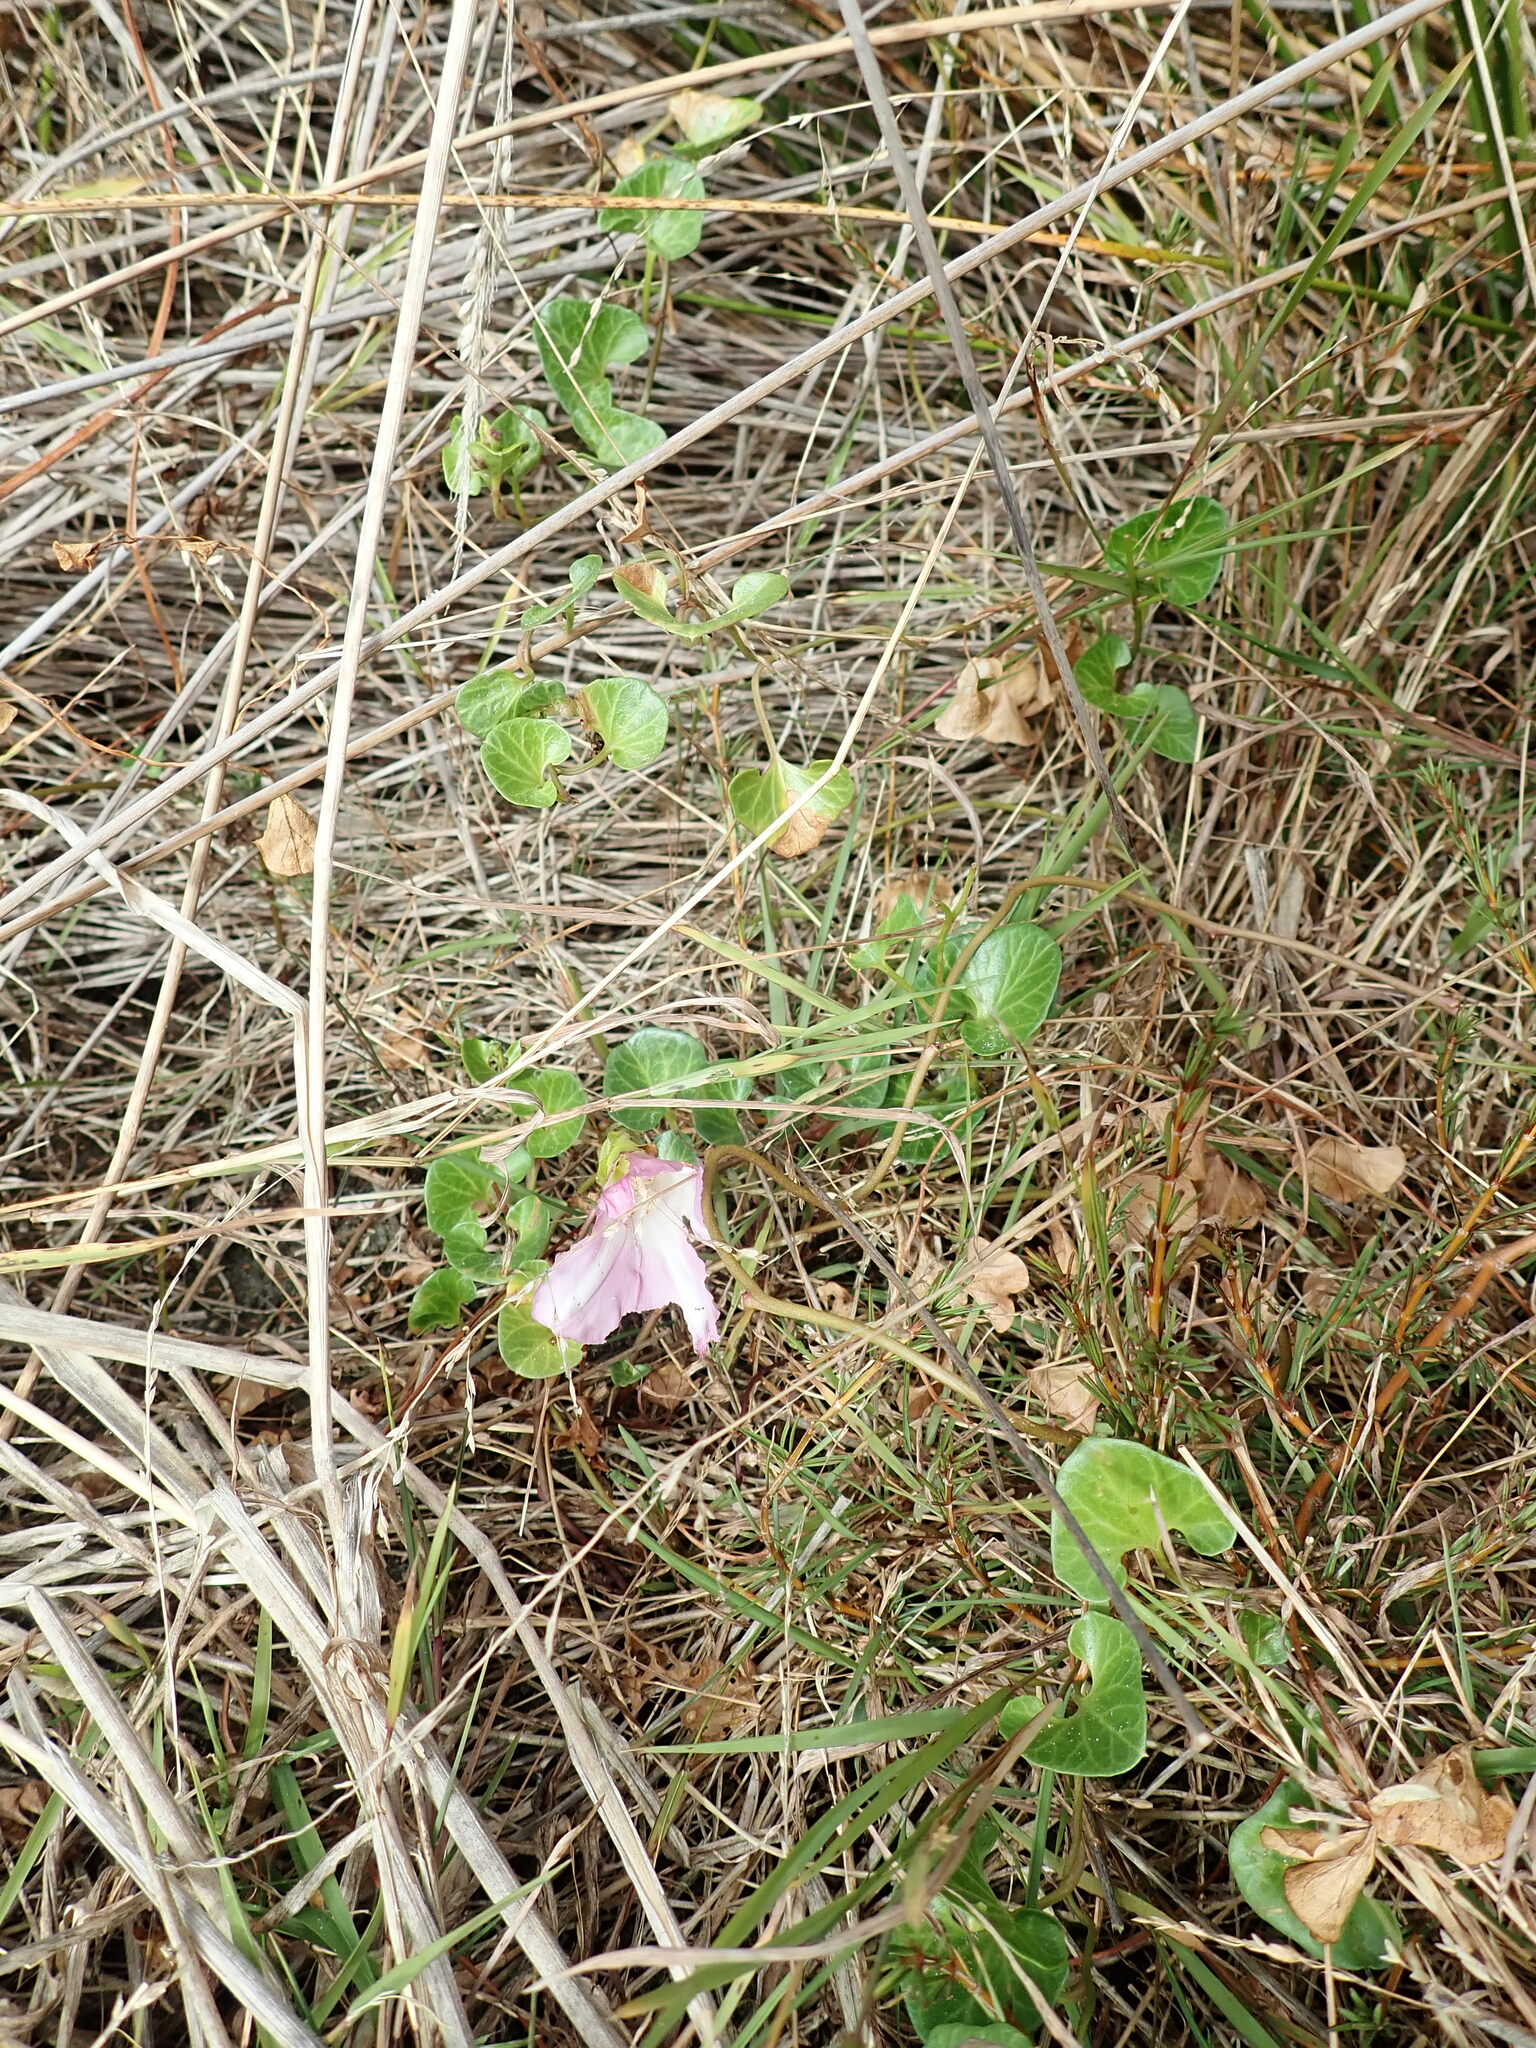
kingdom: Plantae
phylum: Tracheophyta
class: Magnoliopsida
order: Solanales
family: Convolvulaceae
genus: Calystegia
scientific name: Calystegia soldanella
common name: Sea bindweed
